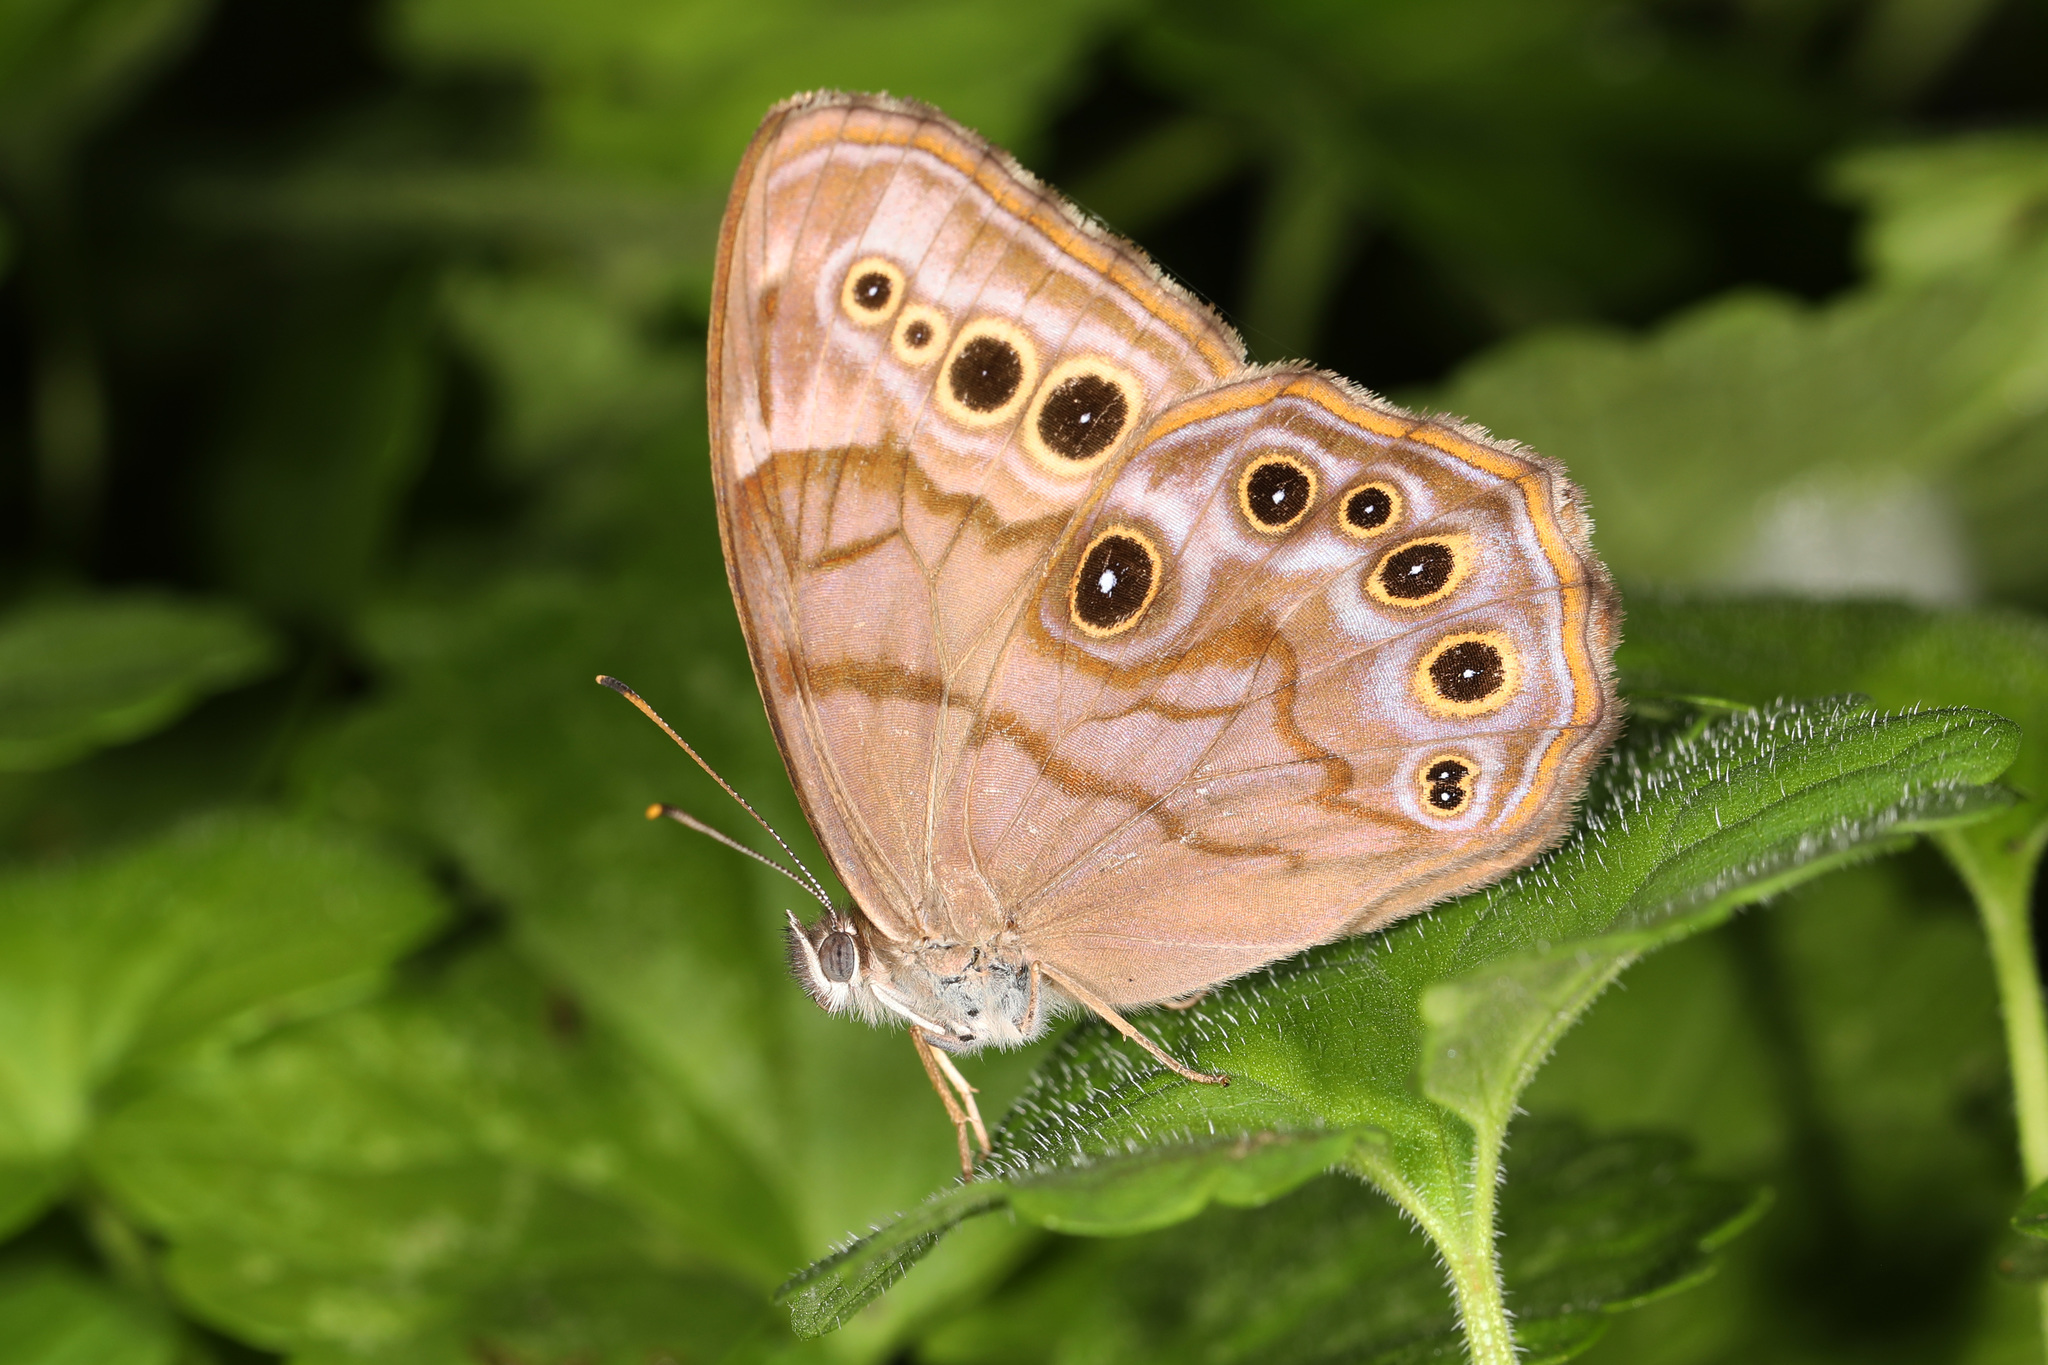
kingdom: Animalia
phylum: Arthropoda
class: Insecta
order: Lepidoptera
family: Nymphalidae
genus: Lethe
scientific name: Lethe anthedon
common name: Northern pearly-eye
